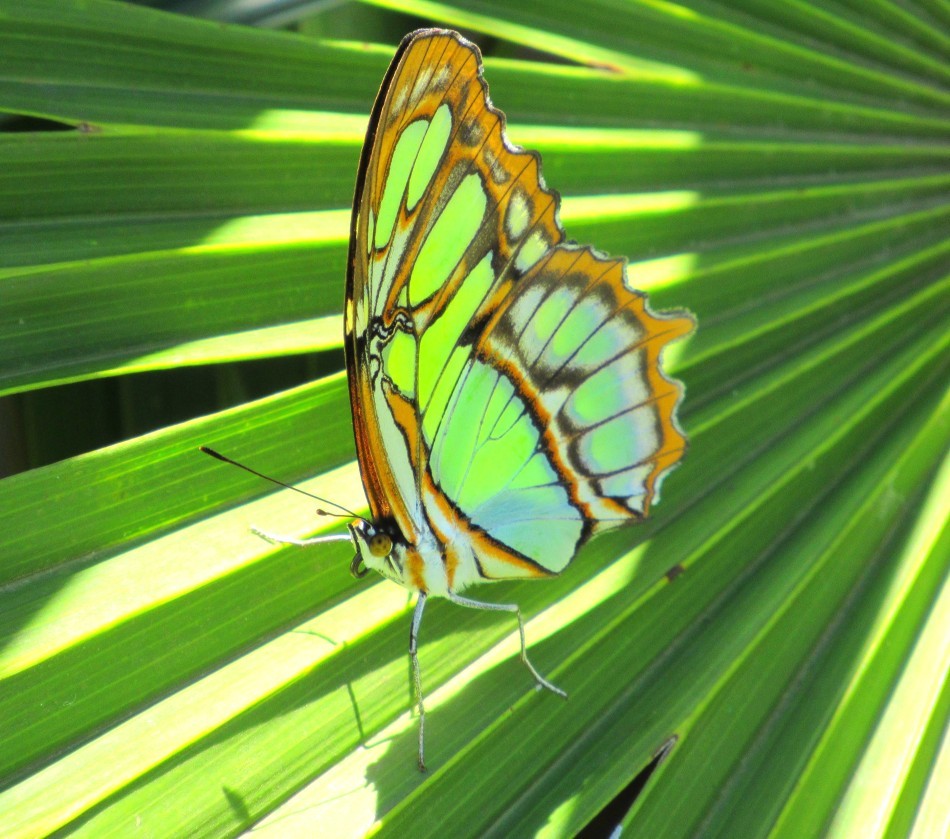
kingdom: Animalia
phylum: Arthropoda
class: Insecta
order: Lepidoptera
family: Nymphalidae
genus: Siproeta
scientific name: Siproeta stelenes
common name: Malachite
